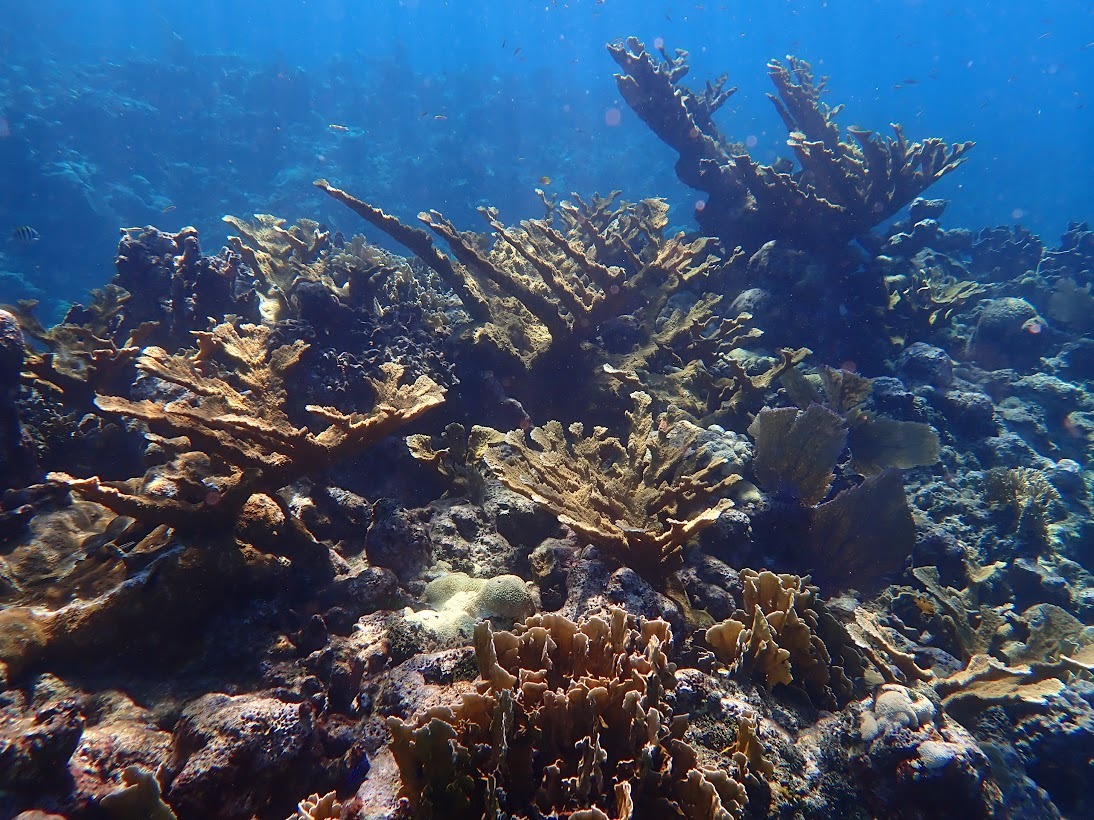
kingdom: Animalia
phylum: Cnidaria
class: Anthozoa
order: Scleractinia
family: Acroporidae
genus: Acropora
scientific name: Acropora palmata
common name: Elkhorn coral
